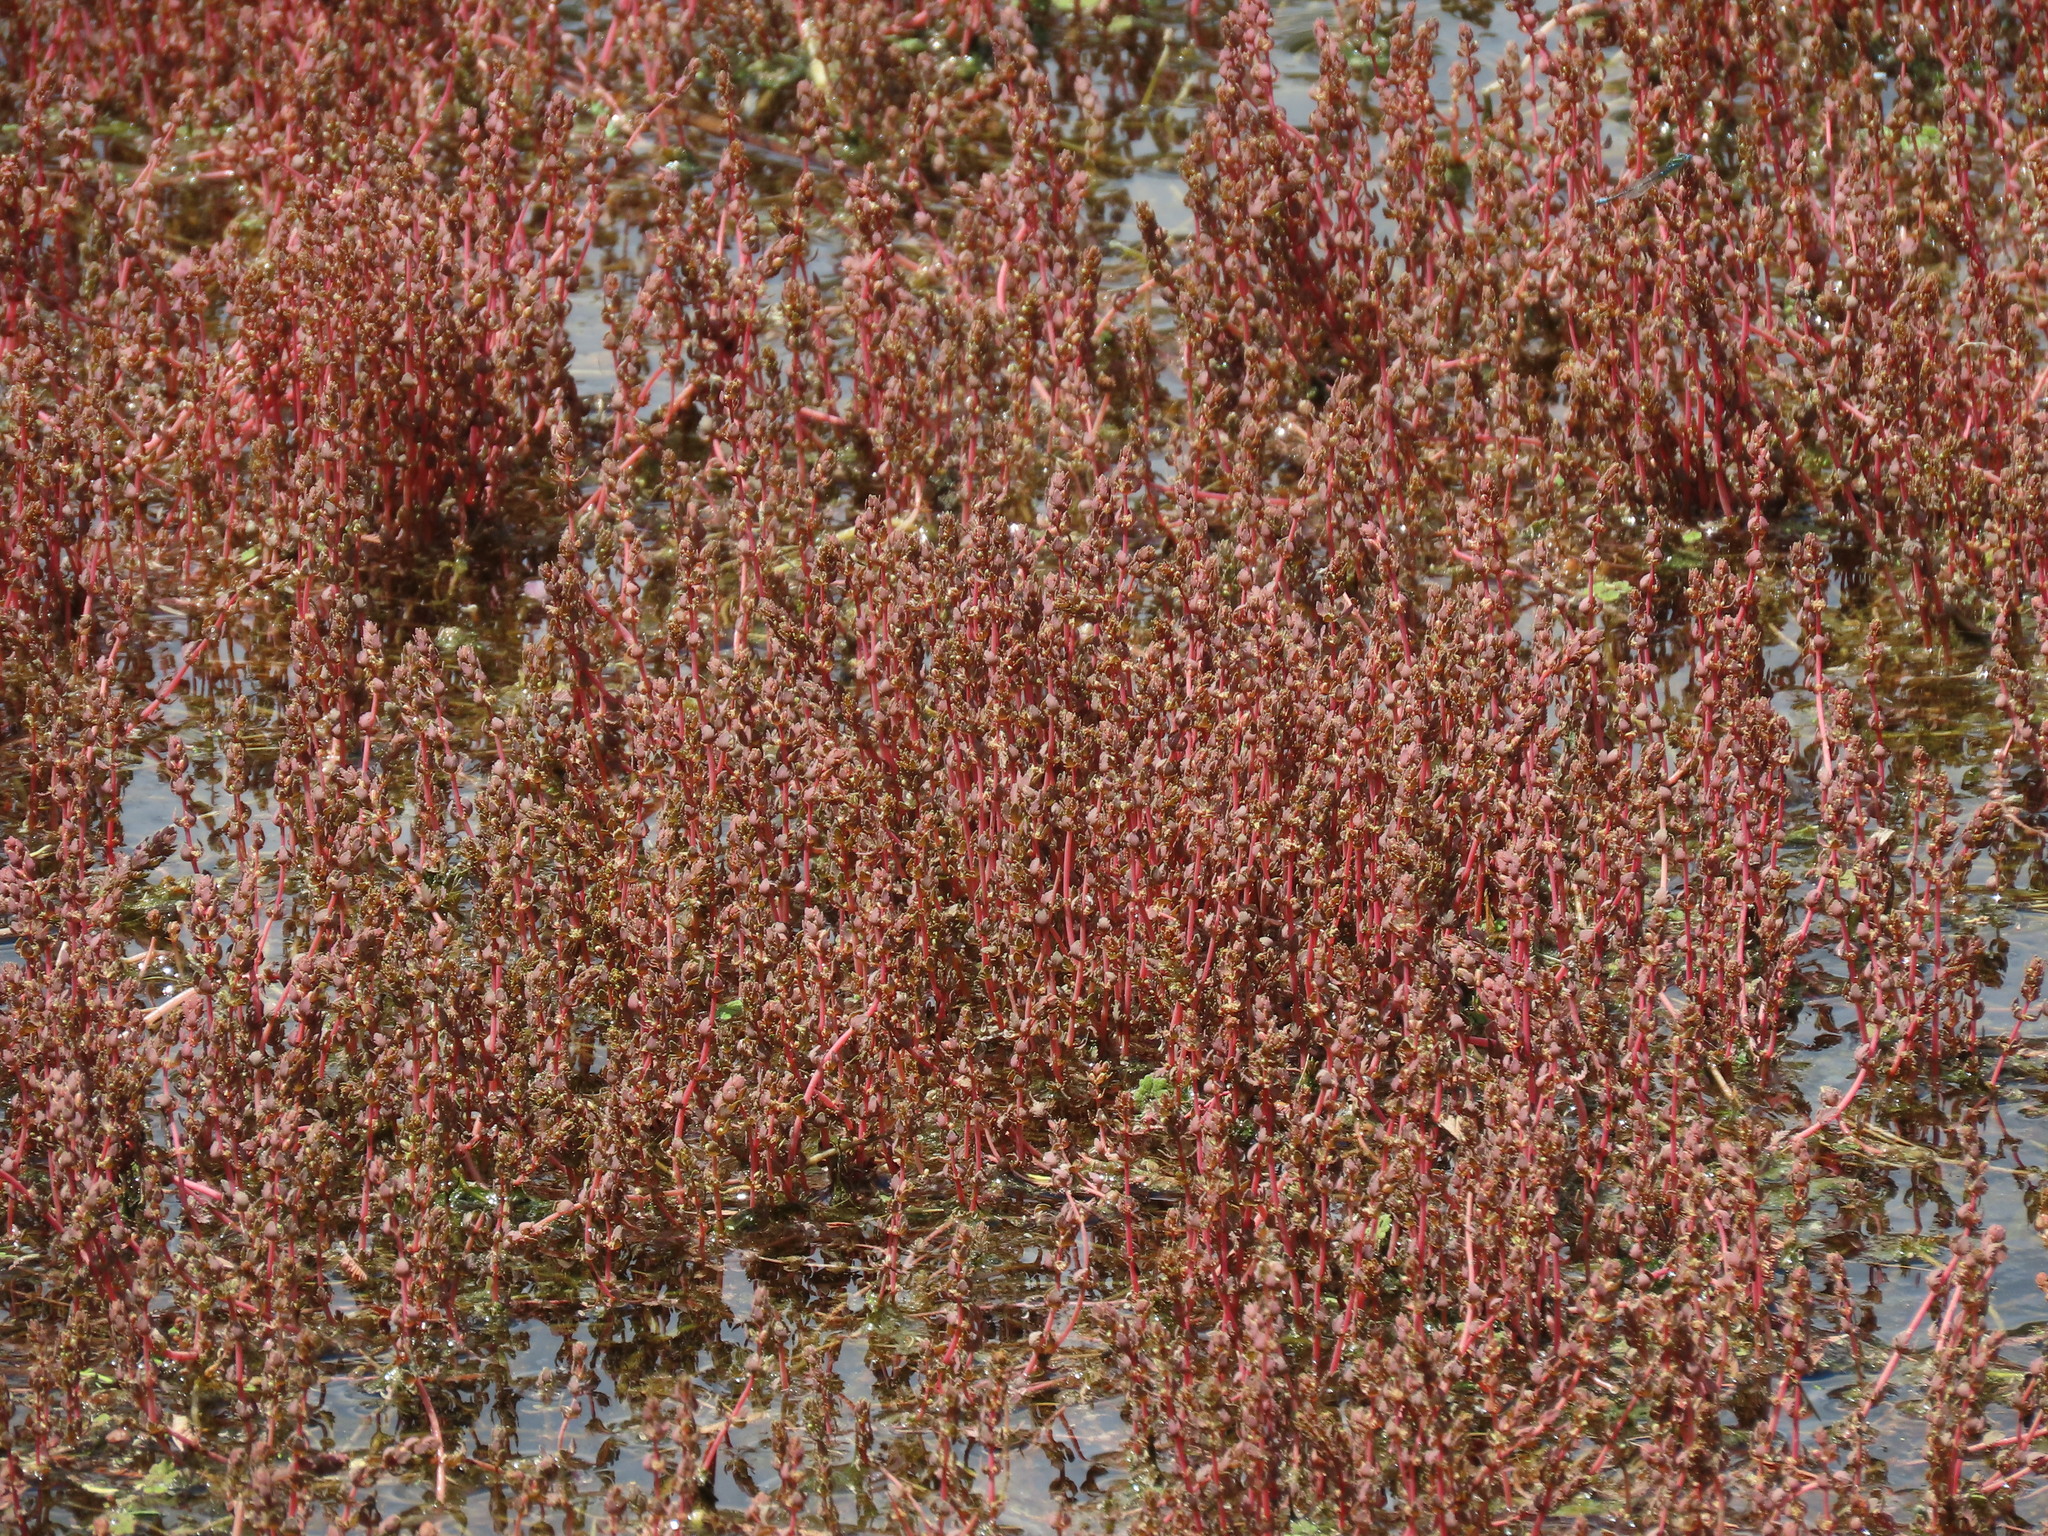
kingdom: Plantae
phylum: Tracheophyta
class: Magnoliopsida
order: Saxifragales
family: Haloragaceae
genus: Myriophyllum
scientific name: Myriophyllum verrucosum
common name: Red water-milfoil
